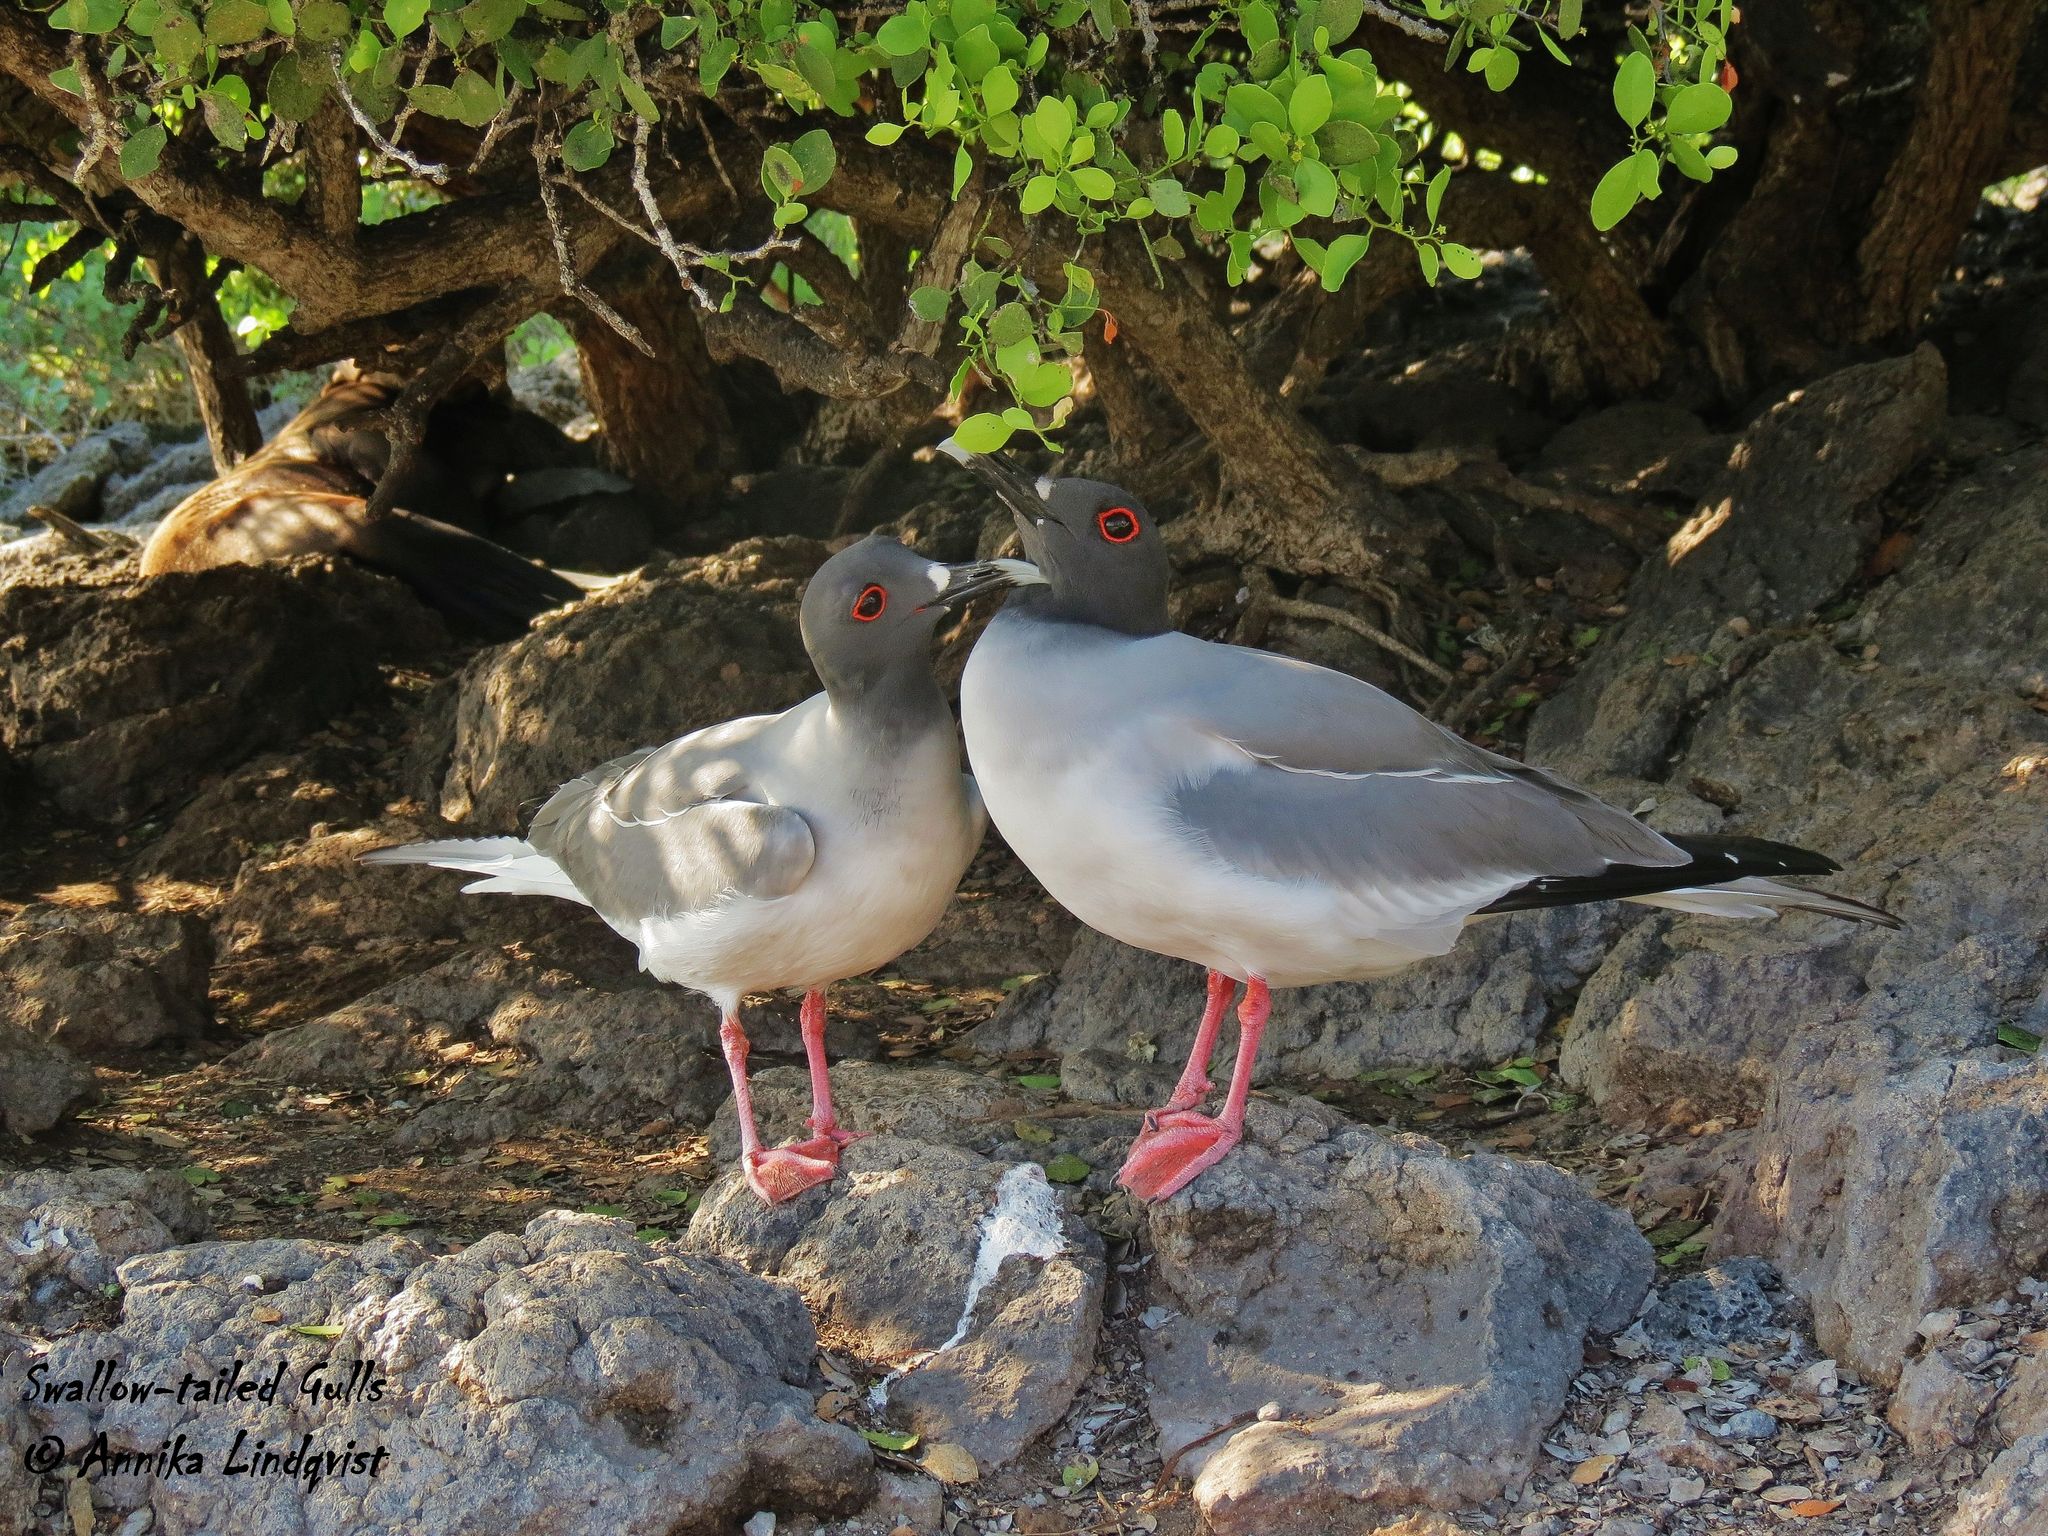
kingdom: Animalia
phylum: Chordata
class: Aves
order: Charadriiformes
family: Laridae
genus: Creagrus
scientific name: Creagrus furcatus
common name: Swallow-tailed gull
